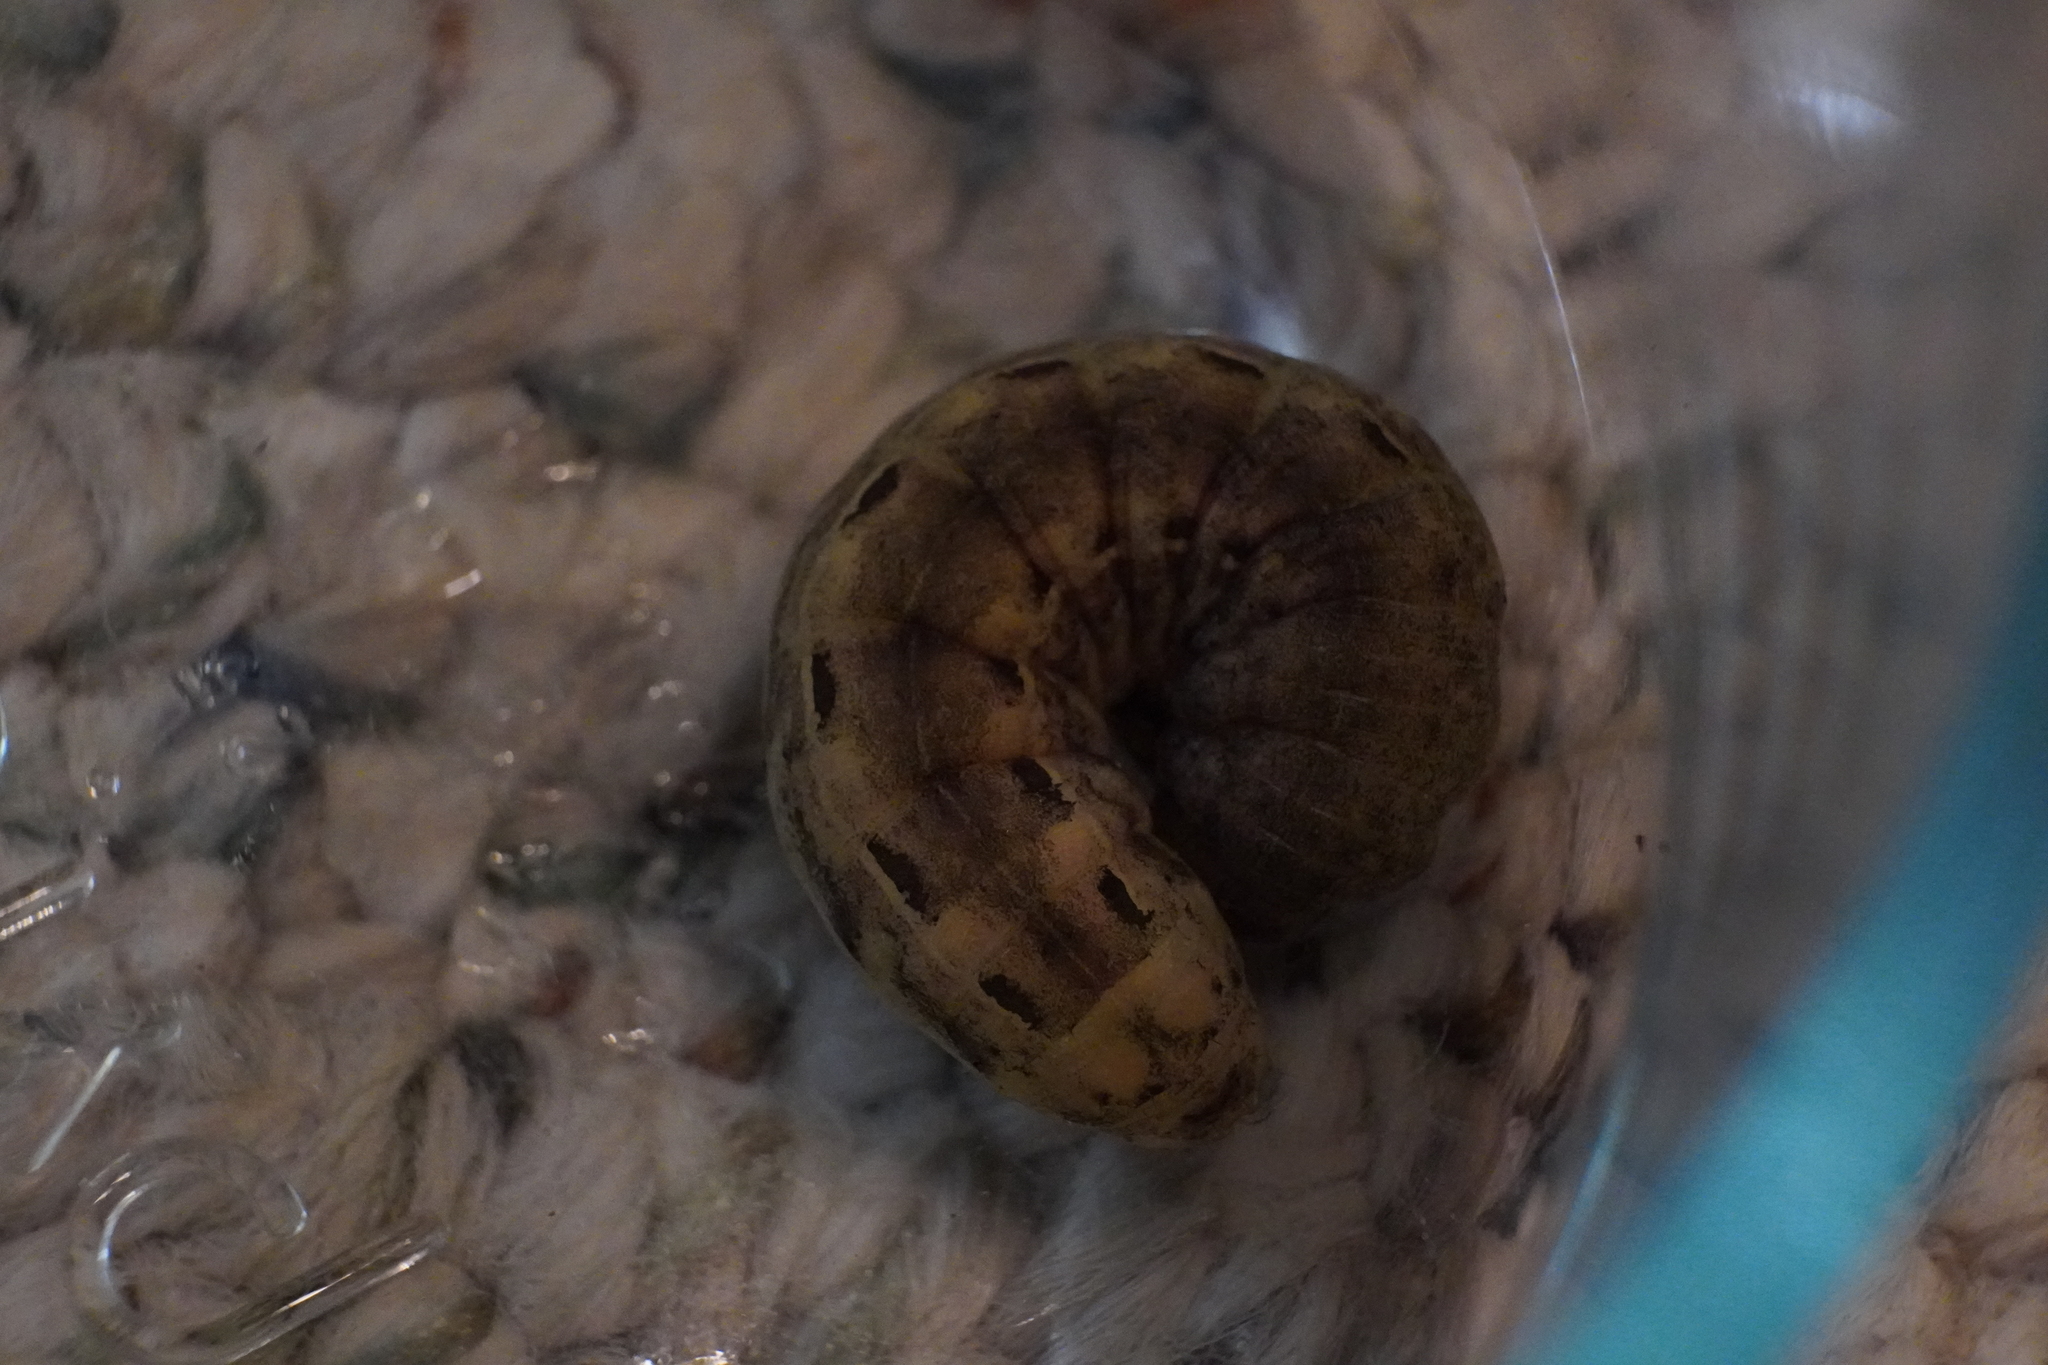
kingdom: Animalia
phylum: Arthropoda
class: Insecta
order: Lepidoptera
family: Noctuidae
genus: Noctua
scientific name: Noctua pronuba
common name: Large yellow underwing
